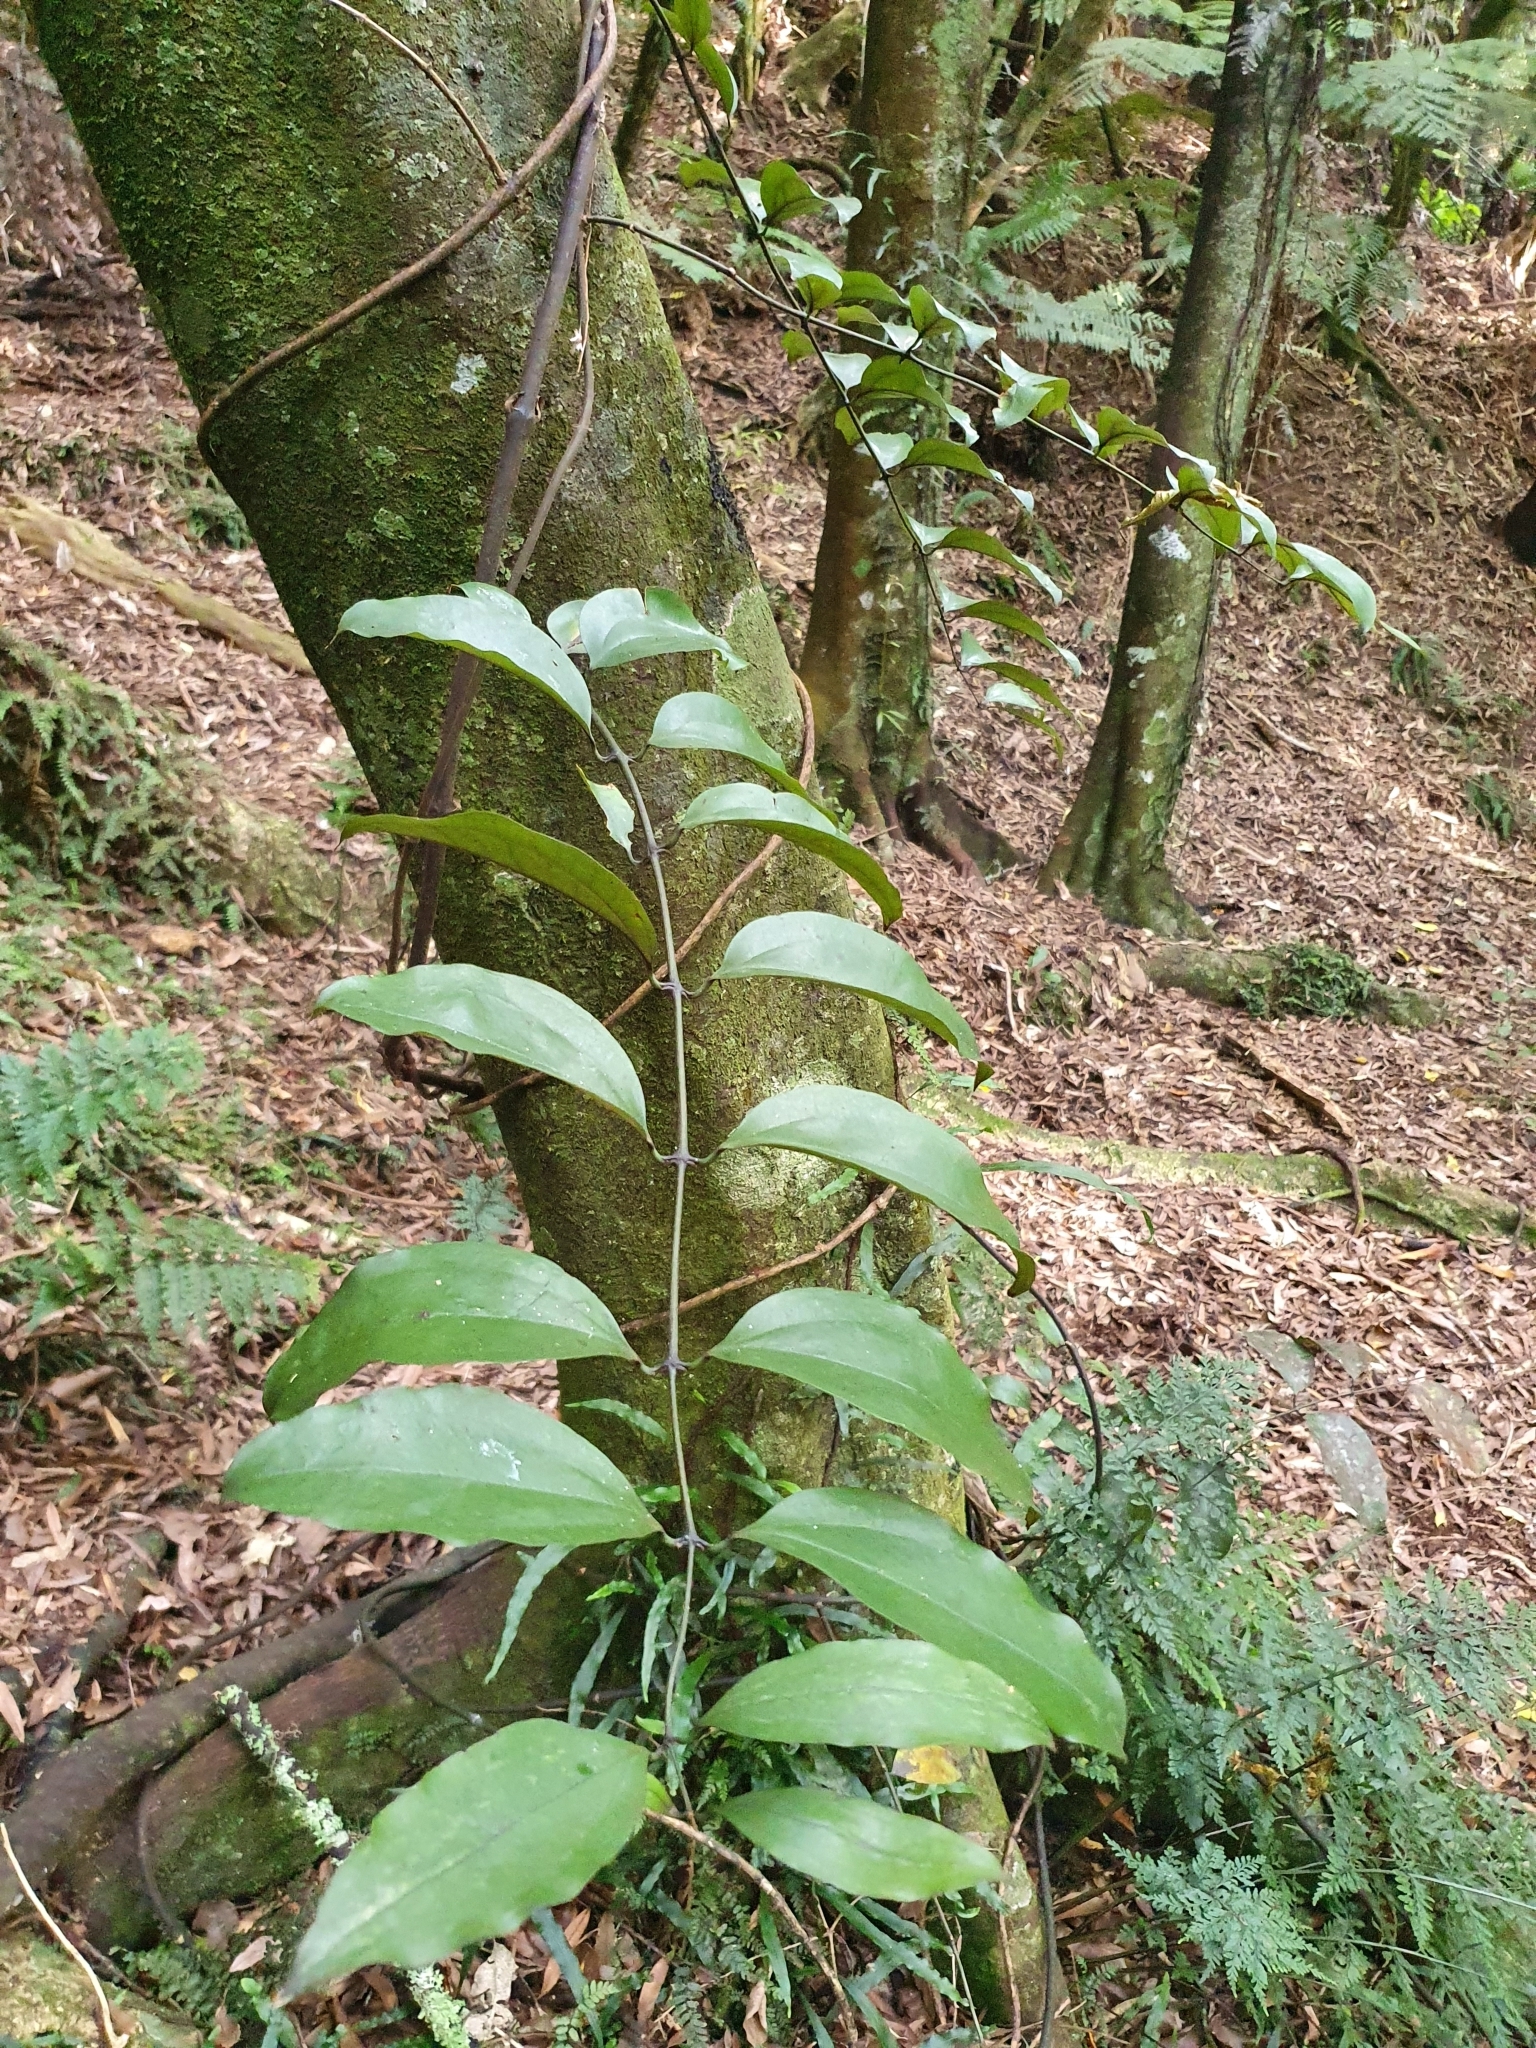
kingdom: Plantae
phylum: Tracheophyta
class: Liliopsida
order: Liliales
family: Ripogonaceae
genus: Ripogonum
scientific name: Ripogonum scandens
